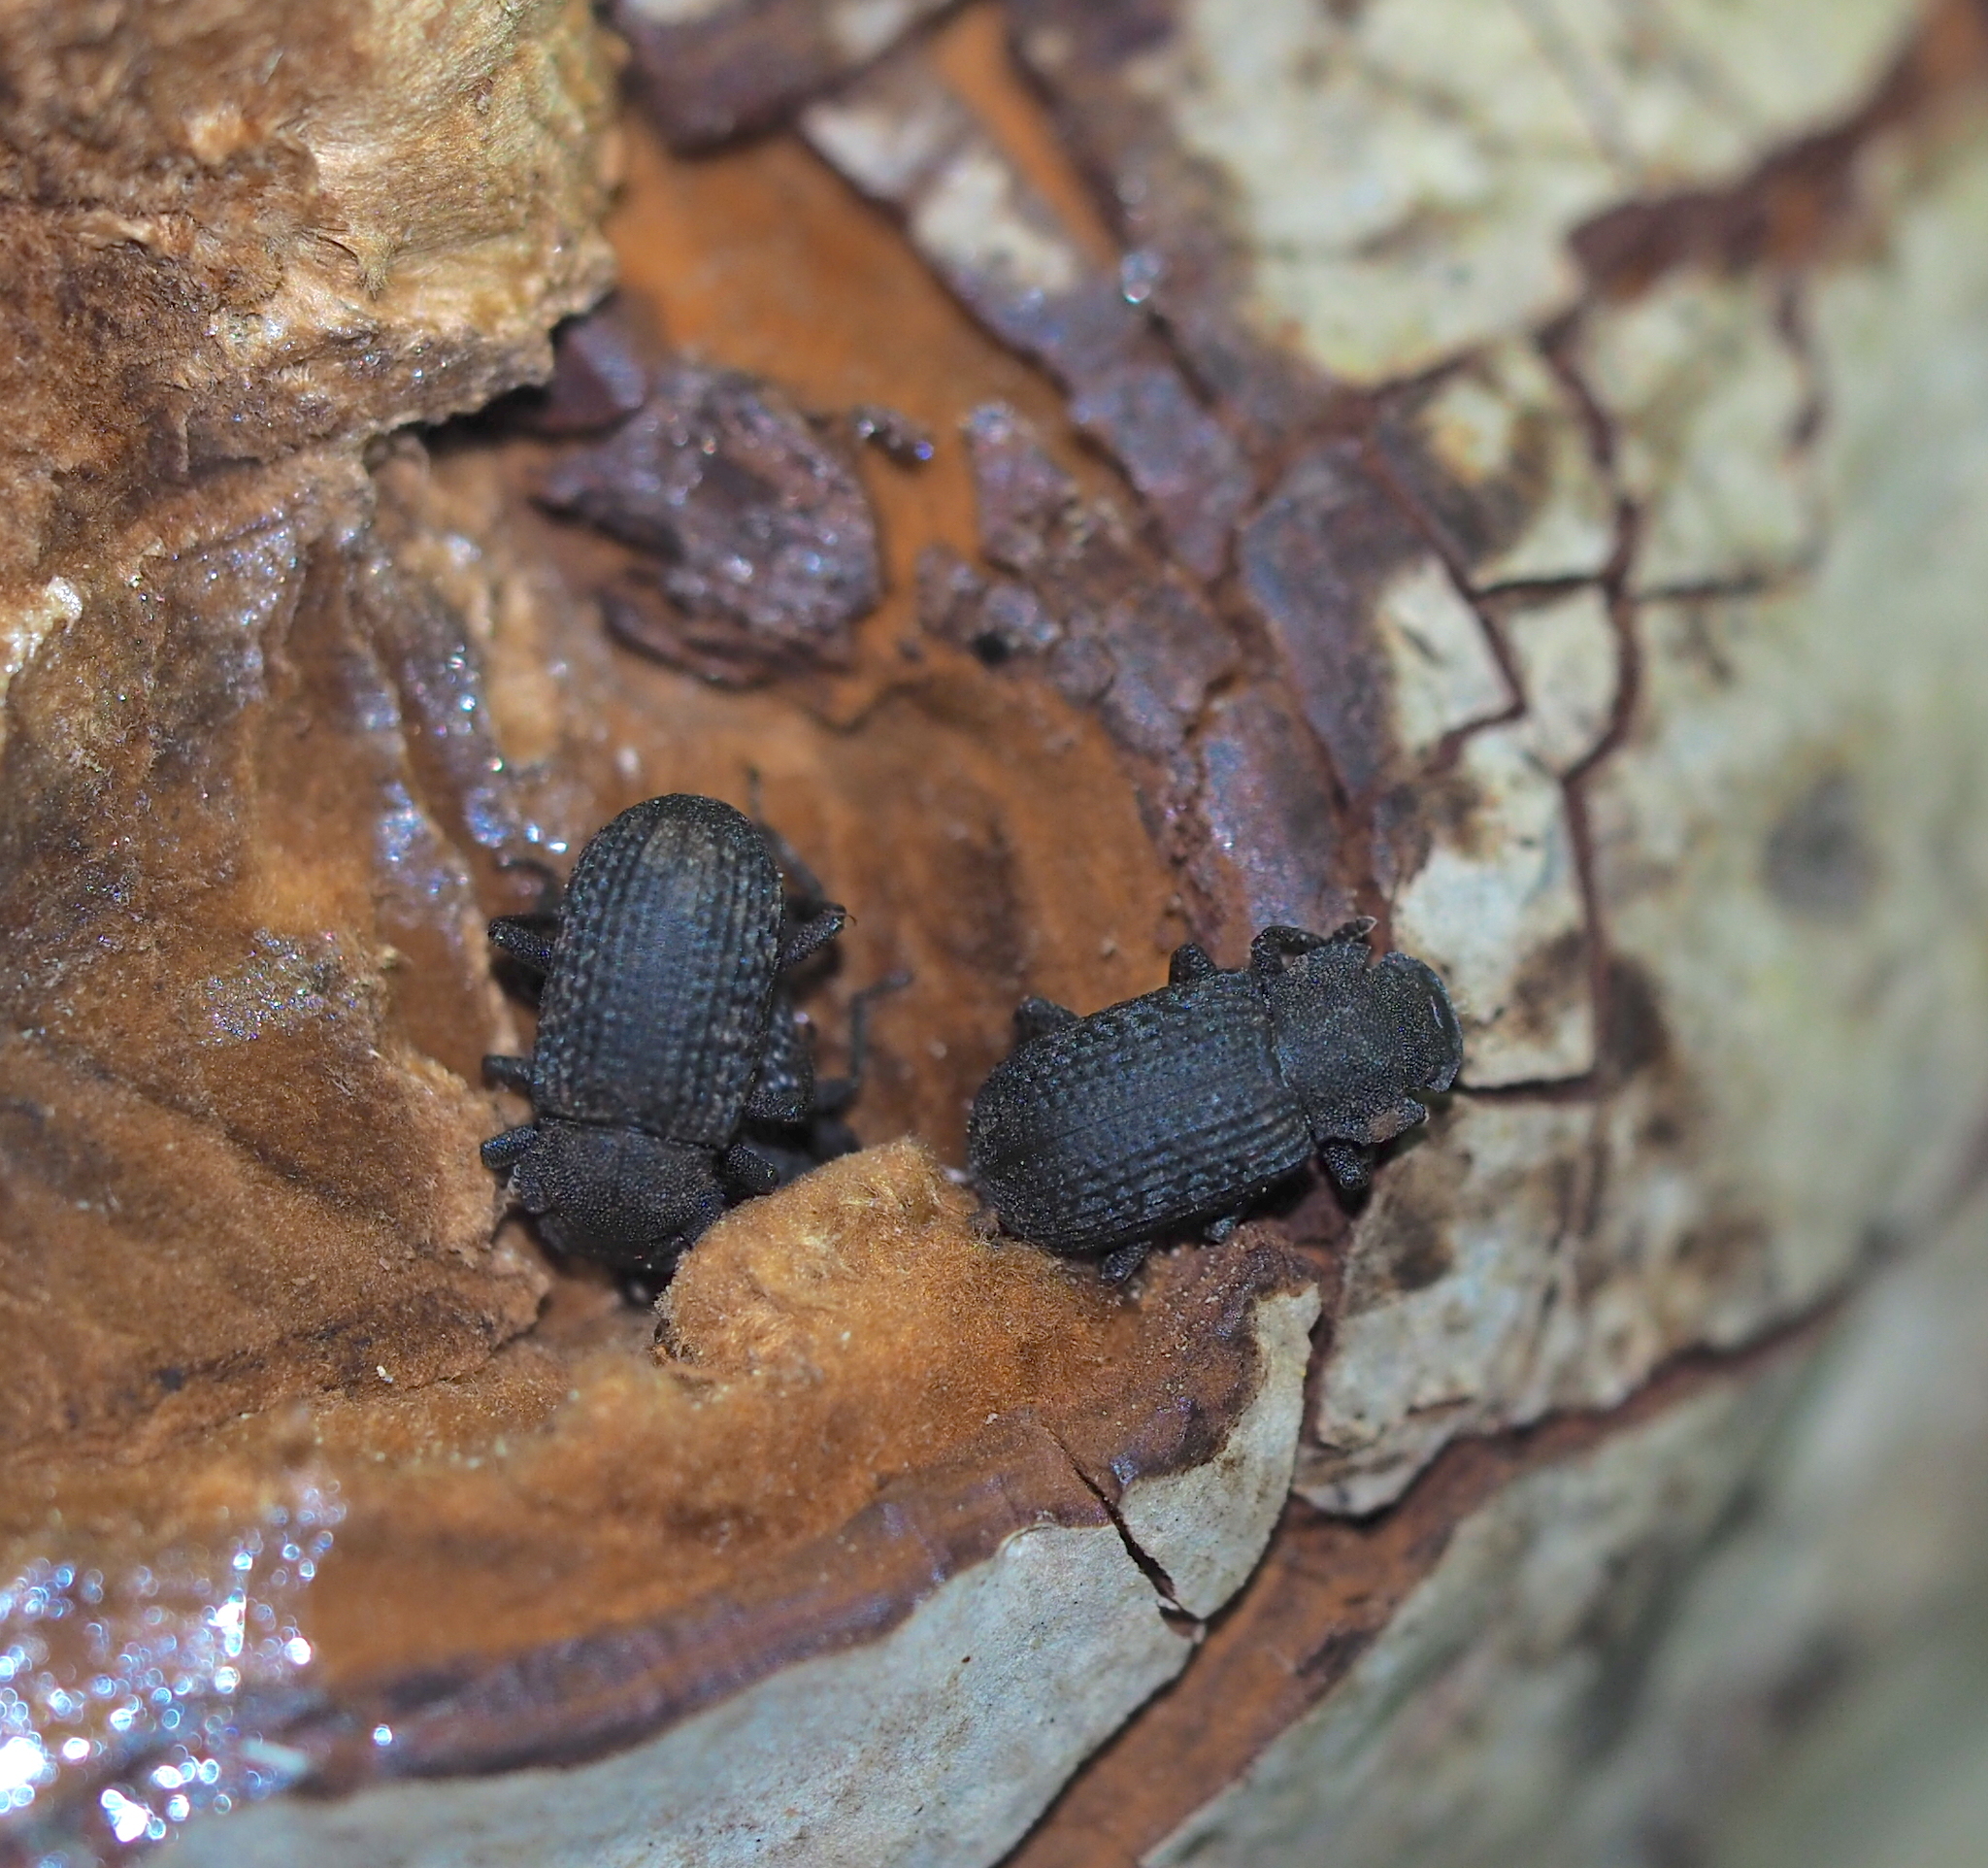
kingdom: Animalia
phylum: Arthropoda
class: Insecta
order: Coleoptera
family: Tenebrionidae
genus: Bolitophagus
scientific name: Bolitophagus reticulatus
